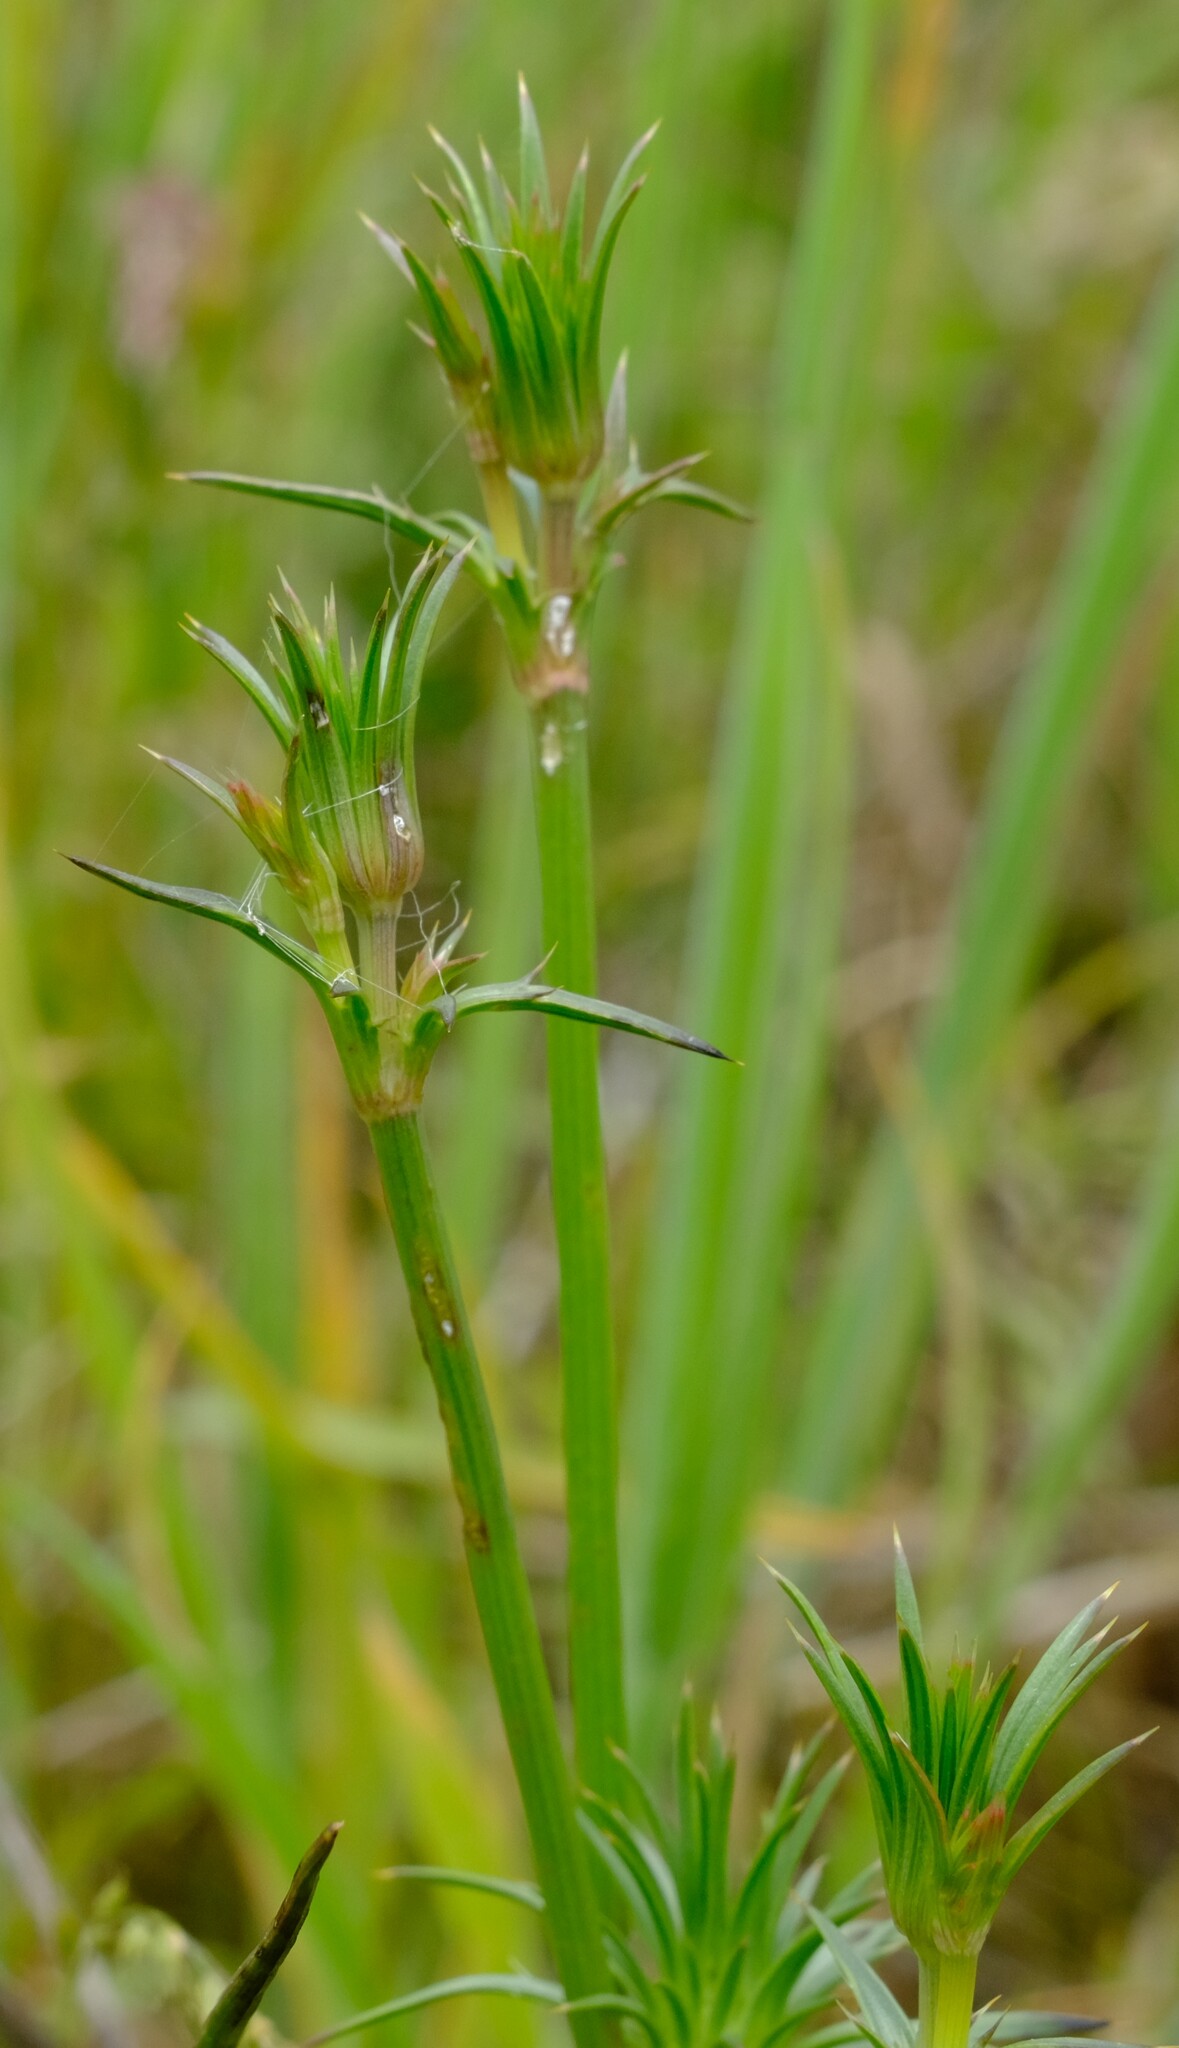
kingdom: Plantae
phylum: Tracheophyta
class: Magnoliopsida
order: Apiales
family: Apiaceae
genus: Eryngium
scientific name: Eryngium ovinum
